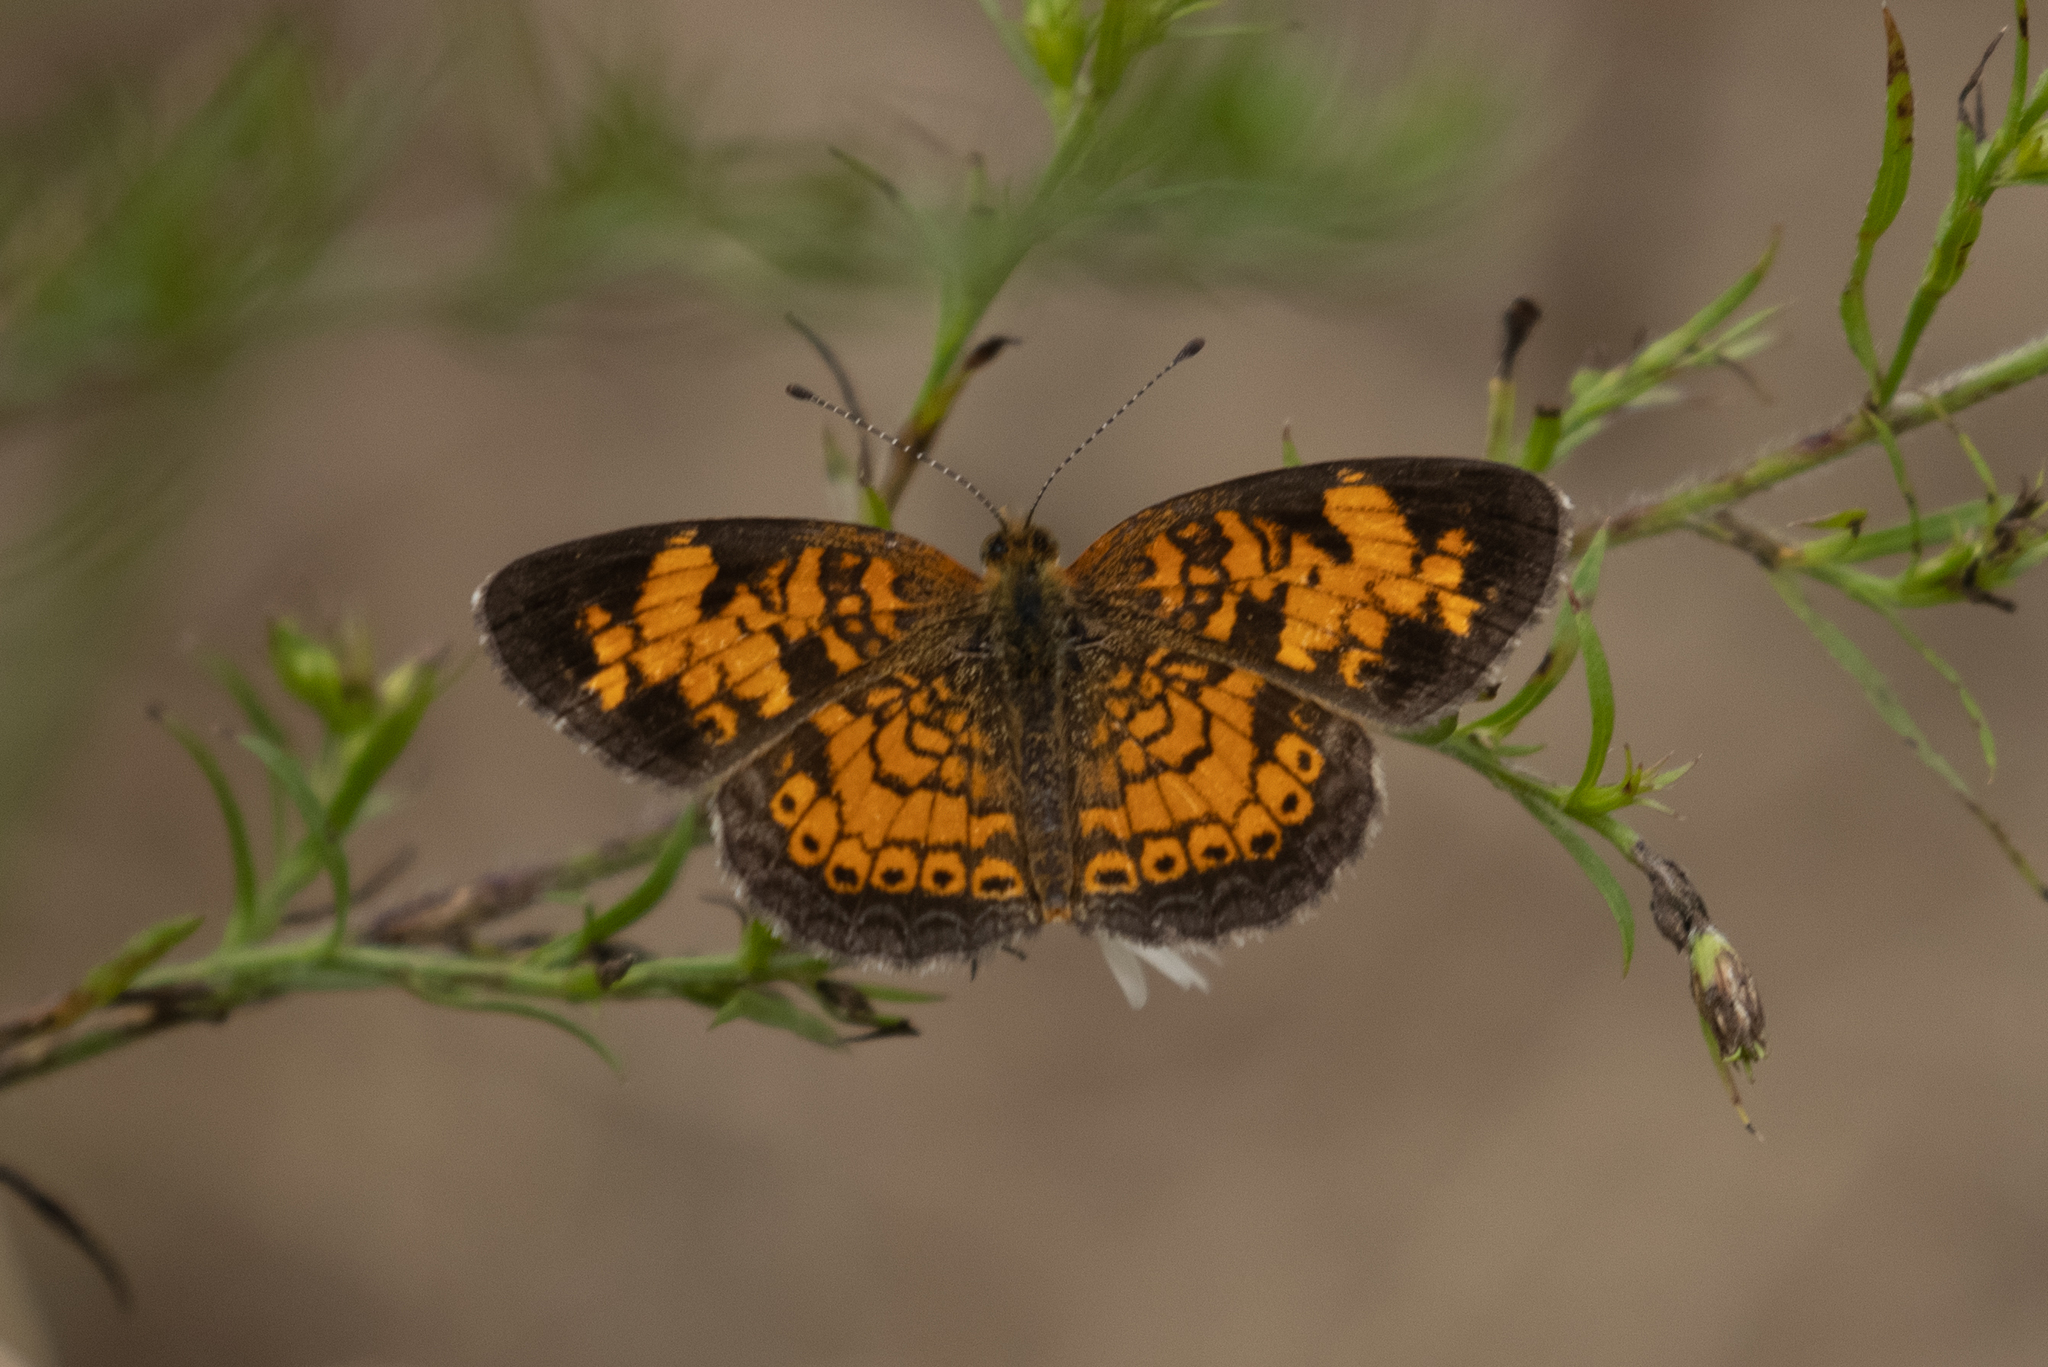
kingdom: Animalia
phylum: Arthropoda
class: Insecta
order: Lepidoptera
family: Nymphalidae
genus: Phyciodes
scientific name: Phyciodes tharos
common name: Pearl crescent
